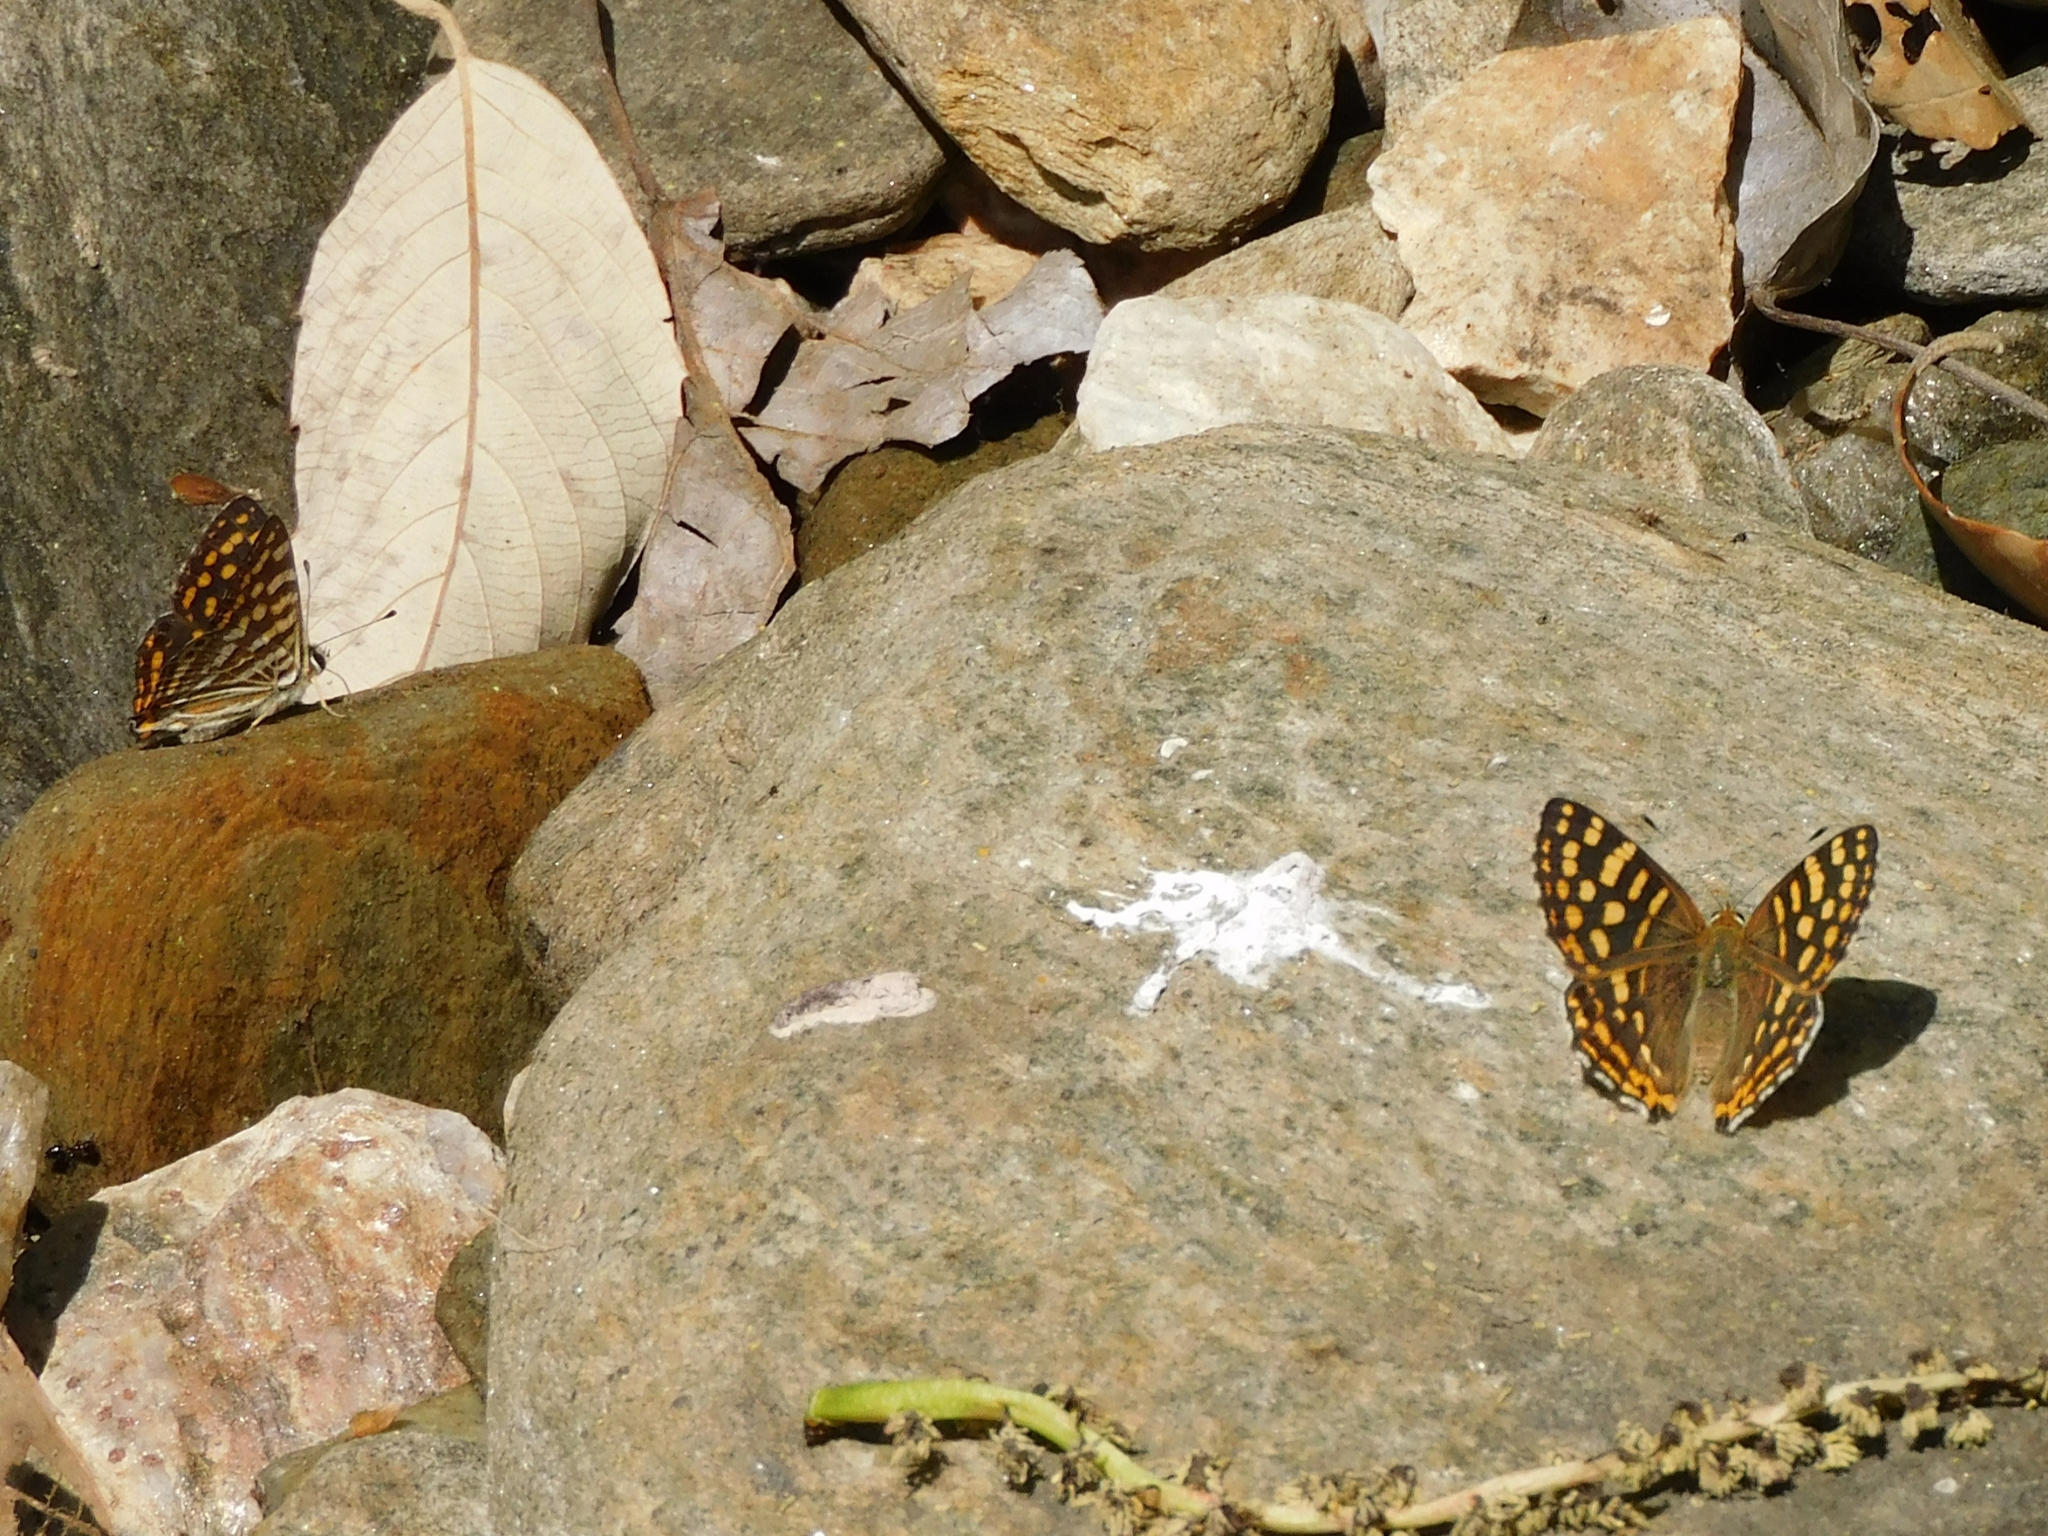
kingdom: Animalia
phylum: Arthropoda
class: Insecta
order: Lepidoptera
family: Lycaenidae
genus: Dodona
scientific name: Dodona durga
